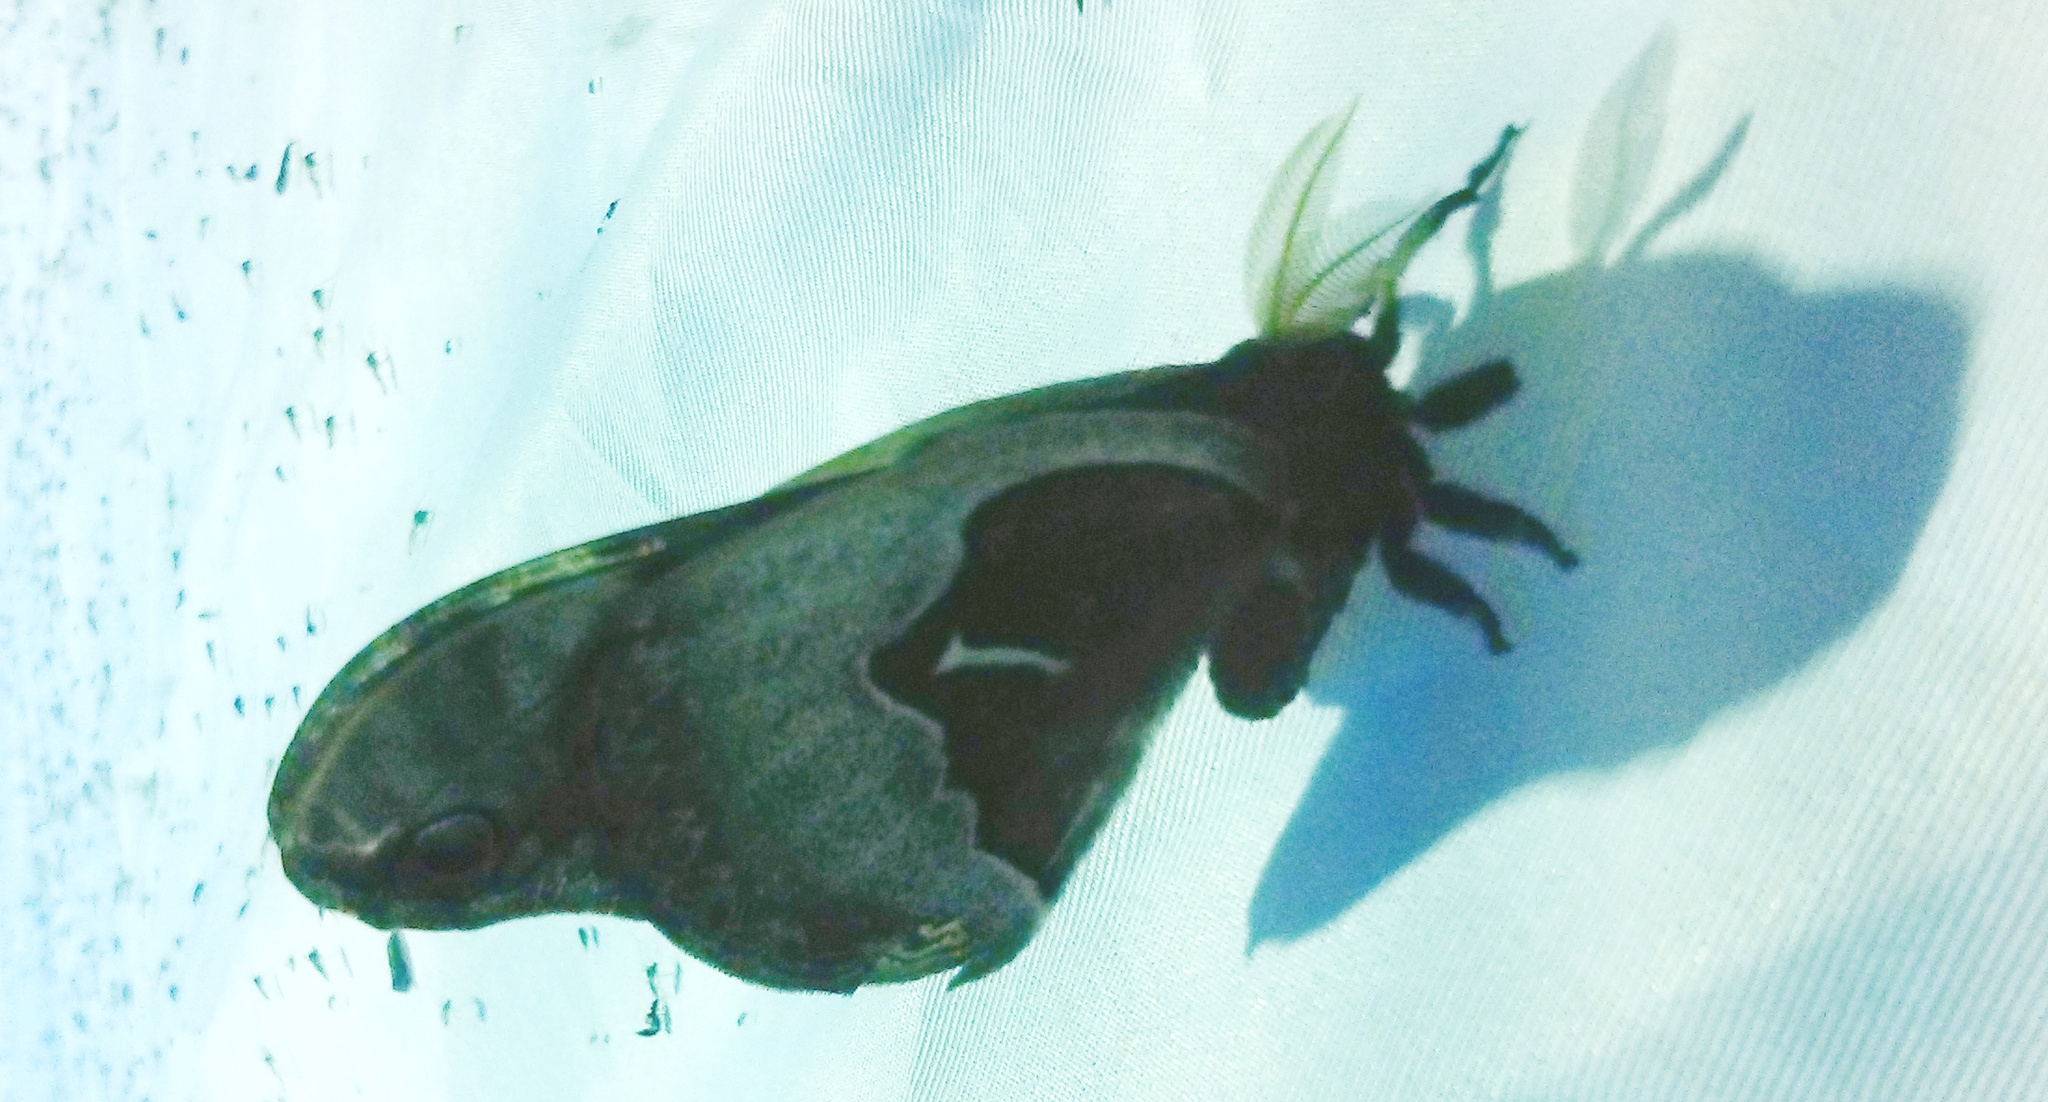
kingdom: Animalia
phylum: Arthropoda
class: Insecta
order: Lepidoptera
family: Saturniidae
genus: Callosamia
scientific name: Callosamia angulifera
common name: Tulip tree silkmoth
